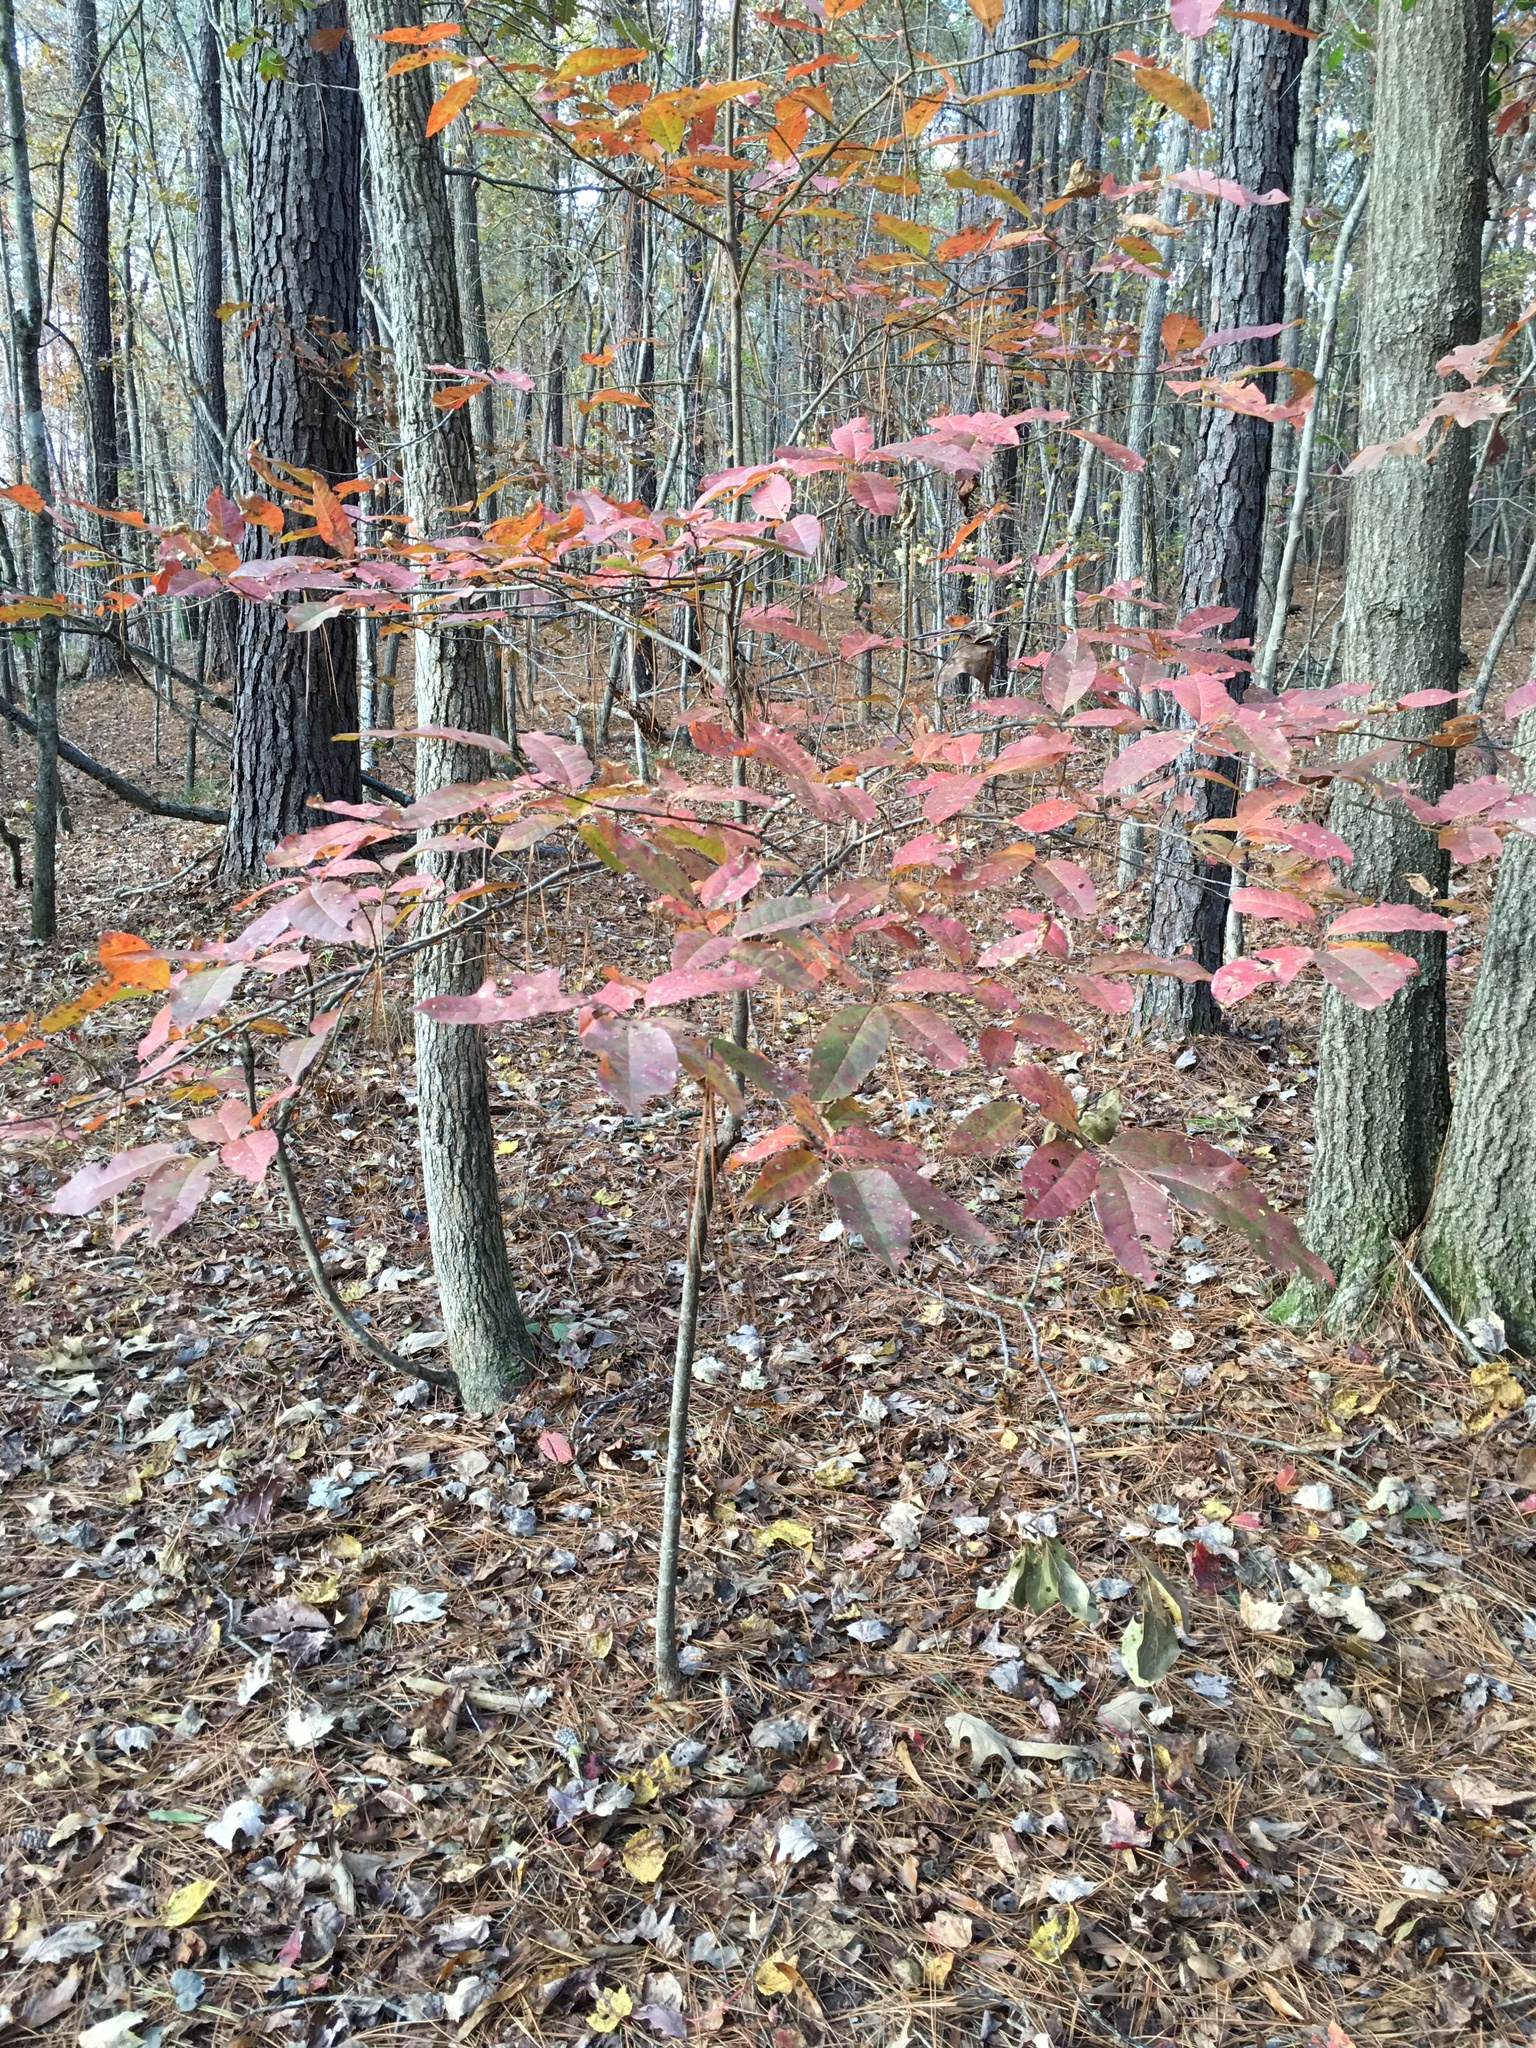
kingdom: Plantae
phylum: Tracheophyta
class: Magnoliopsida
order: Ericales
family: Ericaceae
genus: Oxydendrum
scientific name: Oxydendrum arboreum
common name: Sourwood
